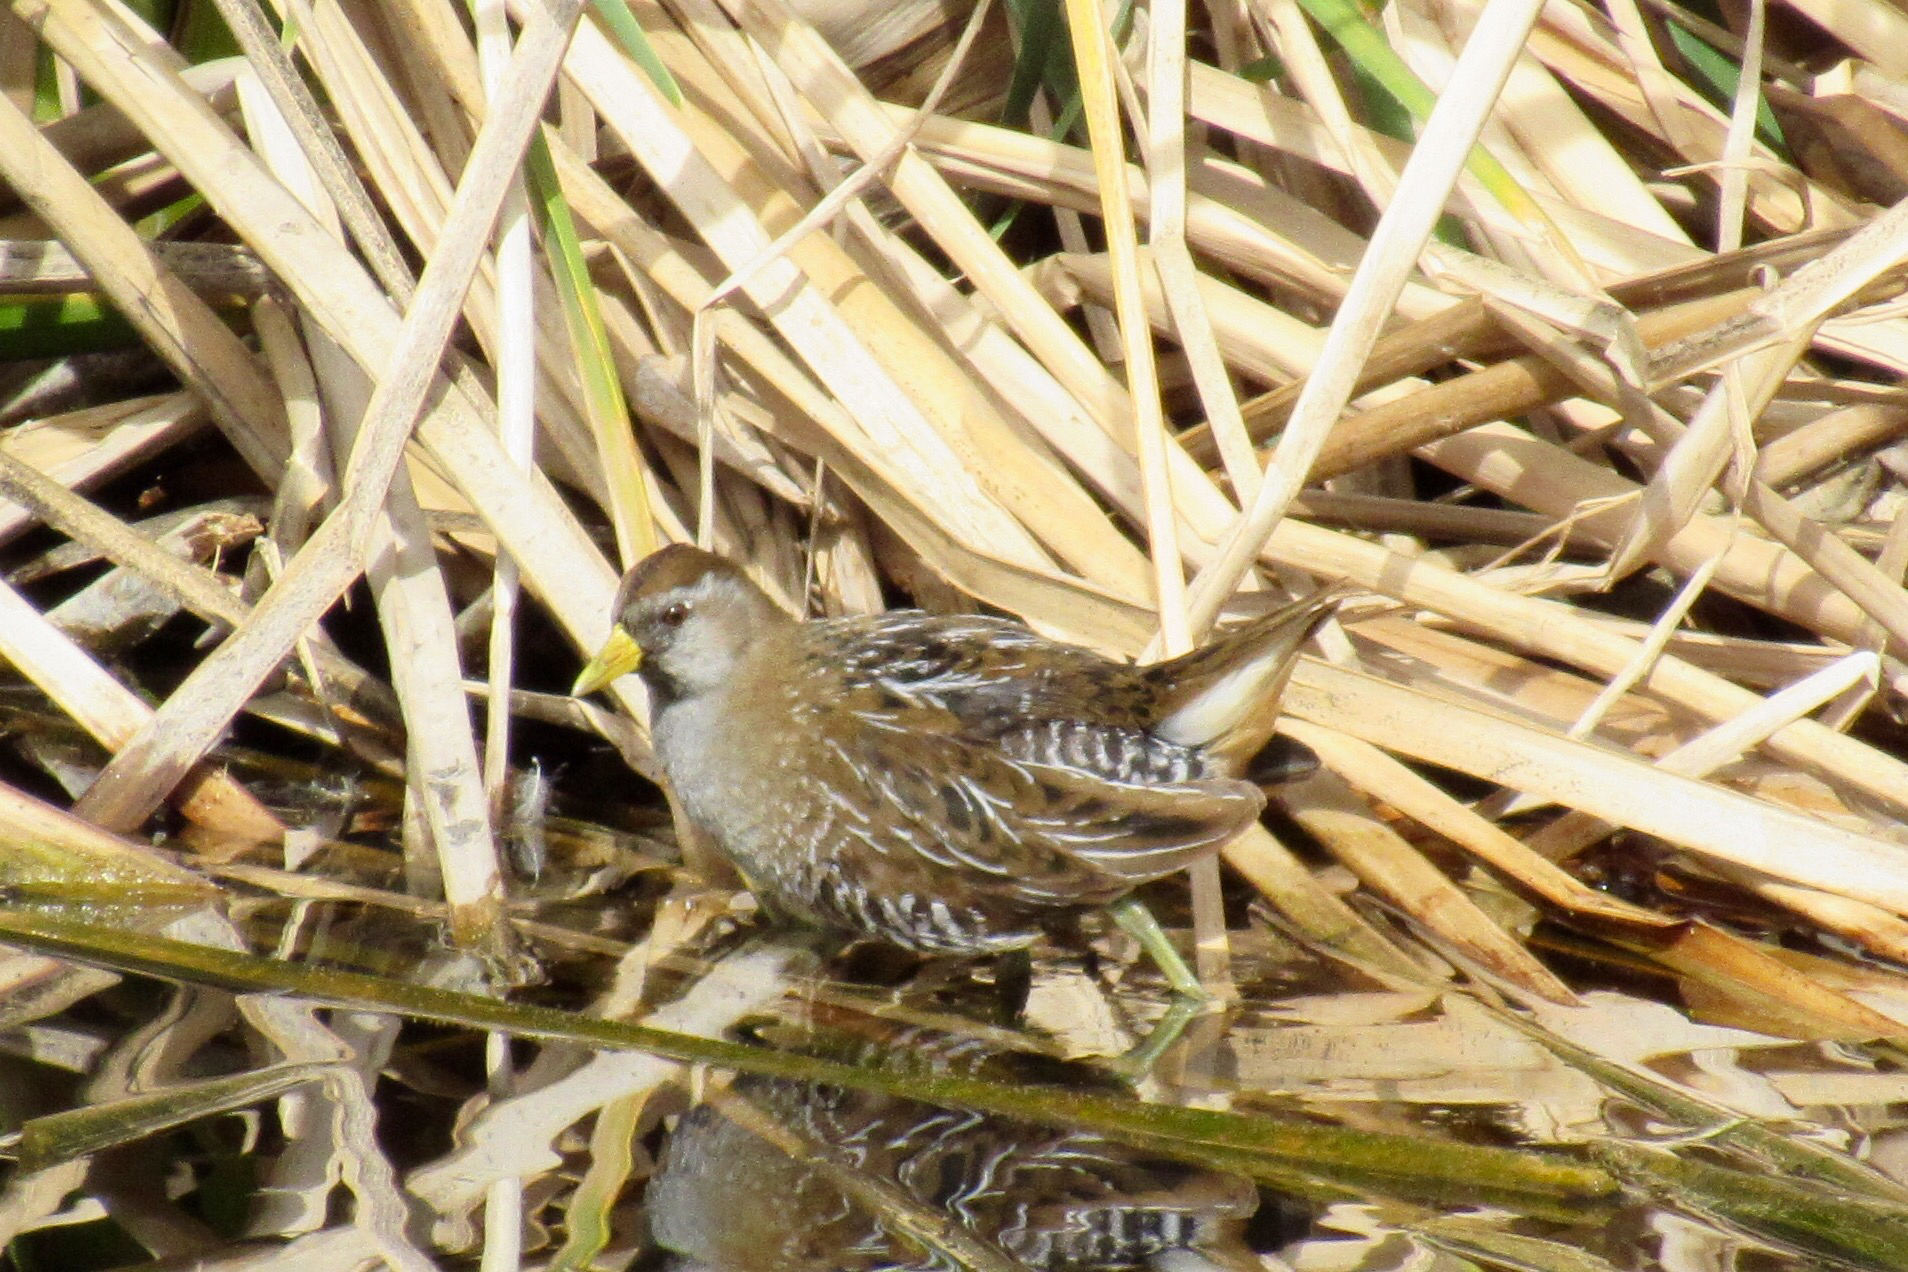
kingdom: Animalia
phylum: Chordata
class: Aves
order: Gruiformes
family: Rallidae
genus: Porzana
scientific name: Porzana carolina
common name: Sora
